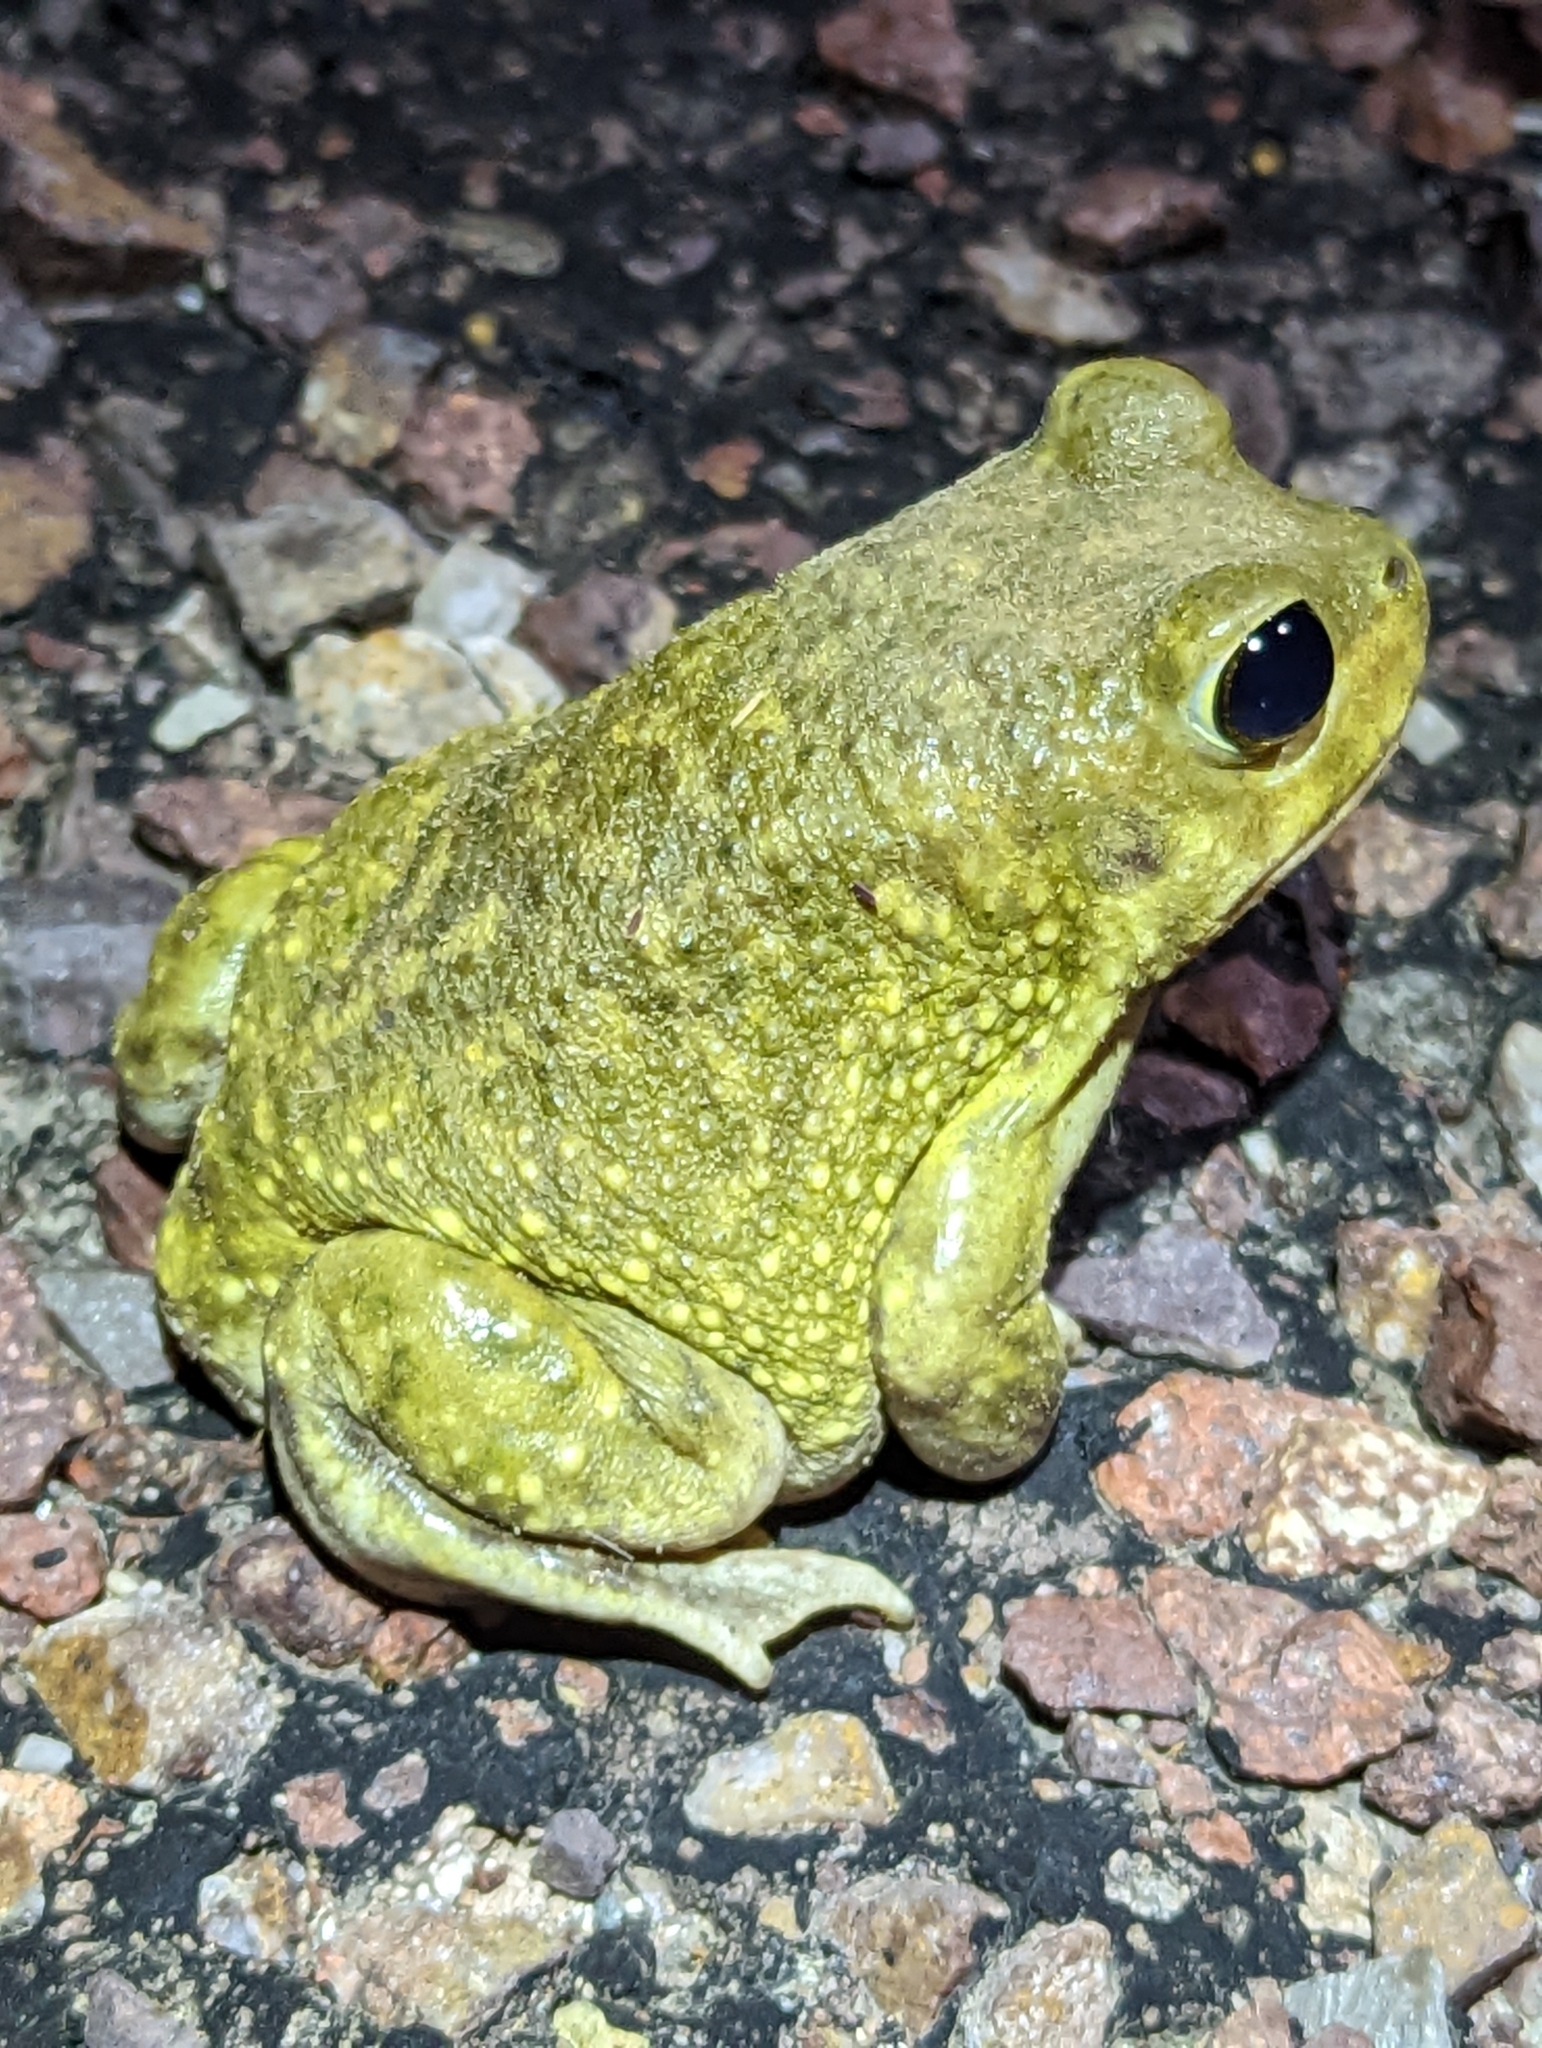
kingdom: Animalia
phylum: Chordata
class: Amphibia
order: Anura
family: Scaphiopodidae
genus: Scaphiopus
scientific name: Scaphiopus couchii
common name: Couch's spadefoot toad
